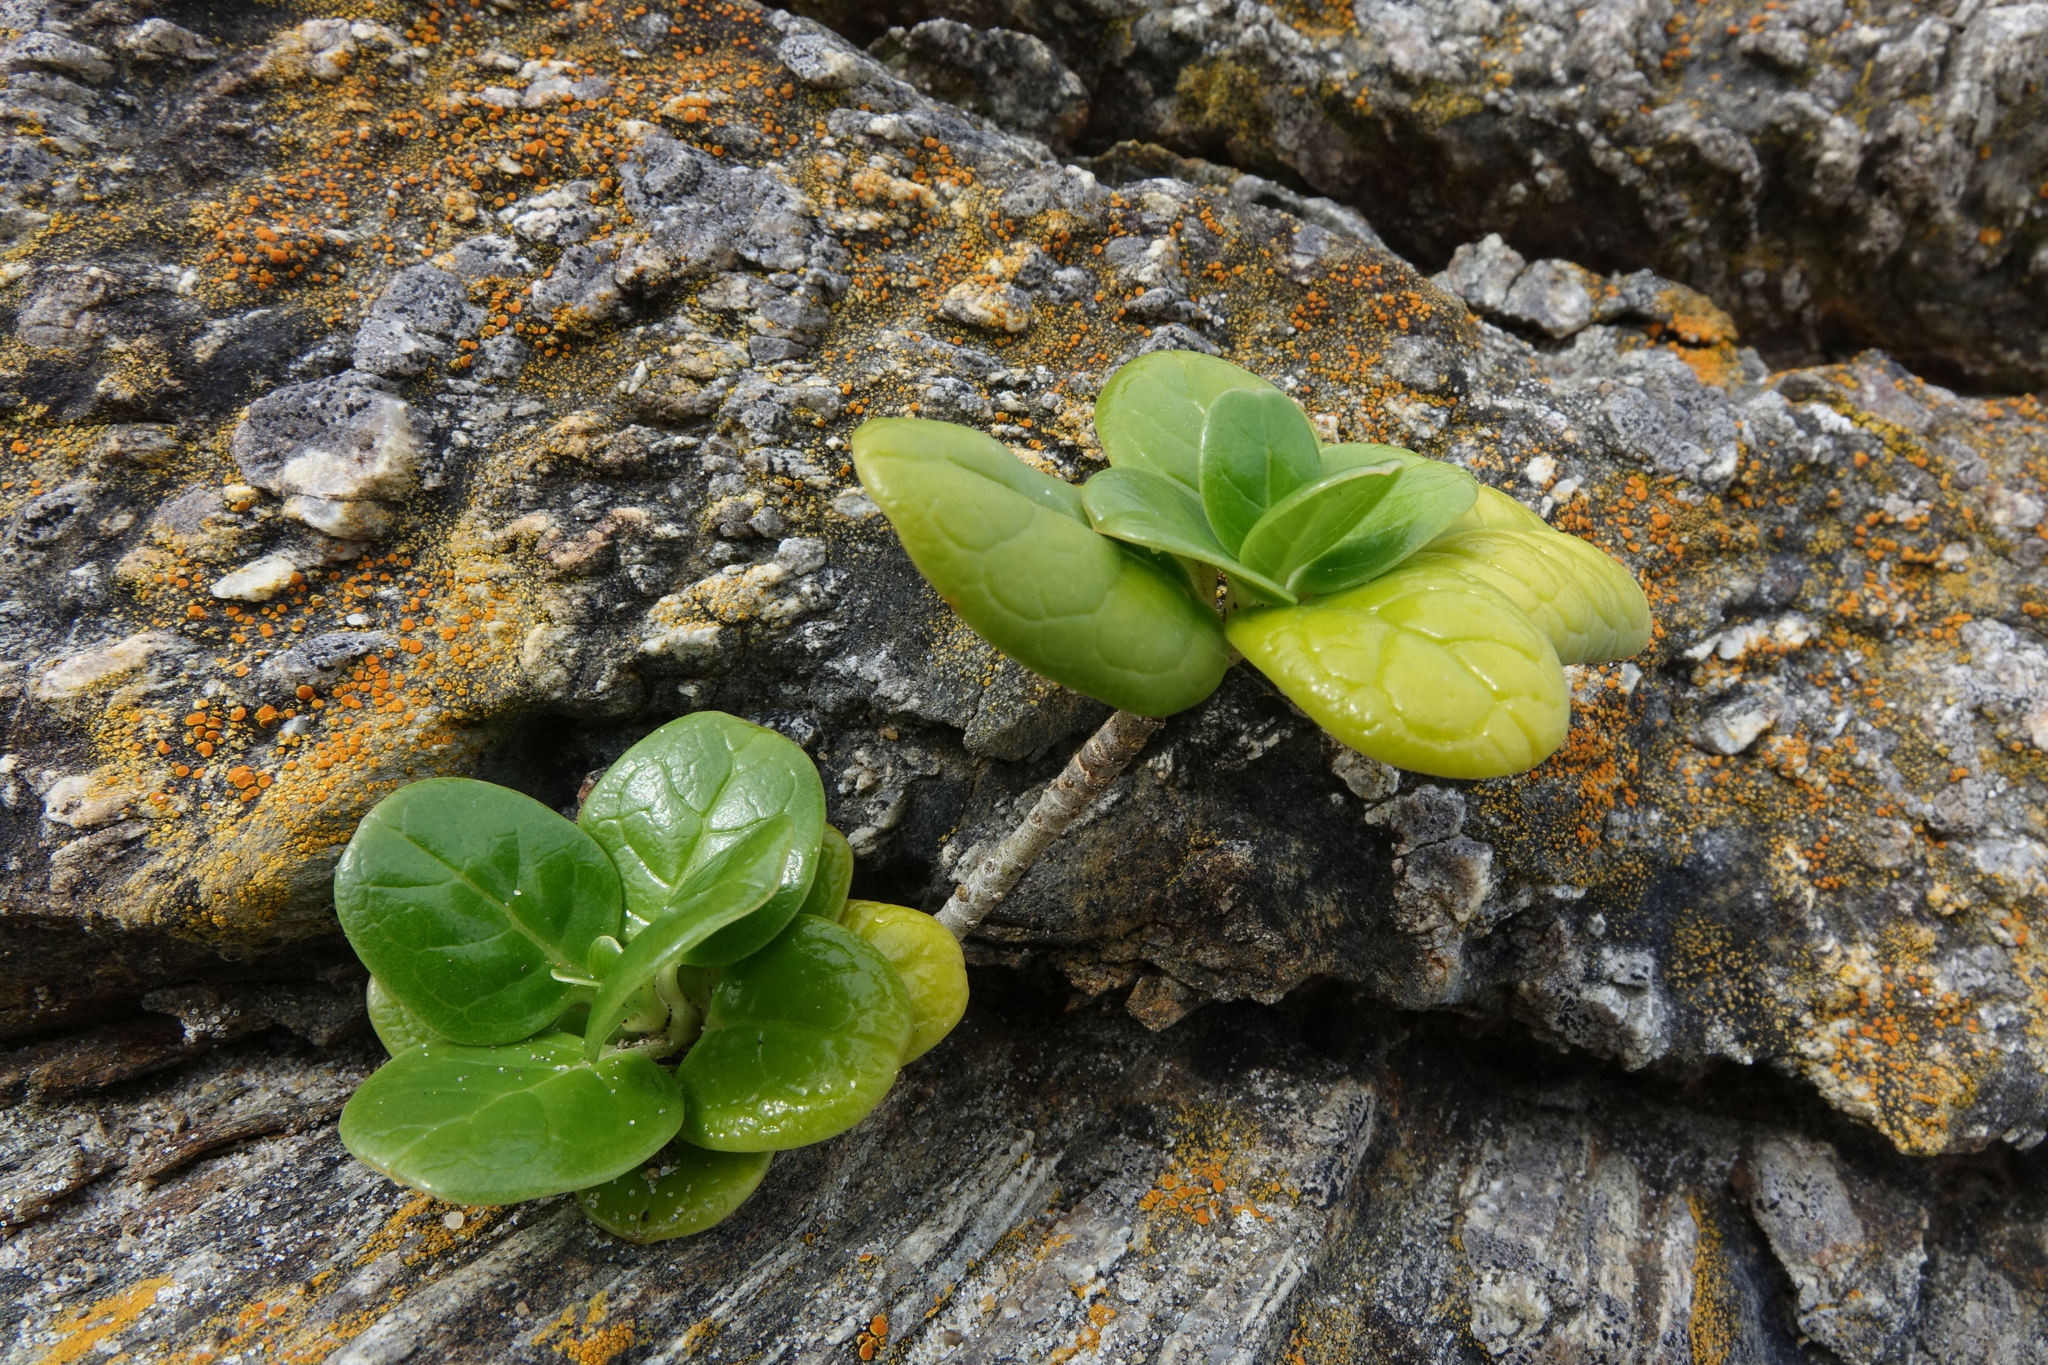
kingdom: Plantae
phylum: Tracheophyta
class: Magnoliopsida
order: Gentianales
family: Rubiaceae
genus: Coprosma
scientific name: Coprosma repens
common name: Tree bedstraw
